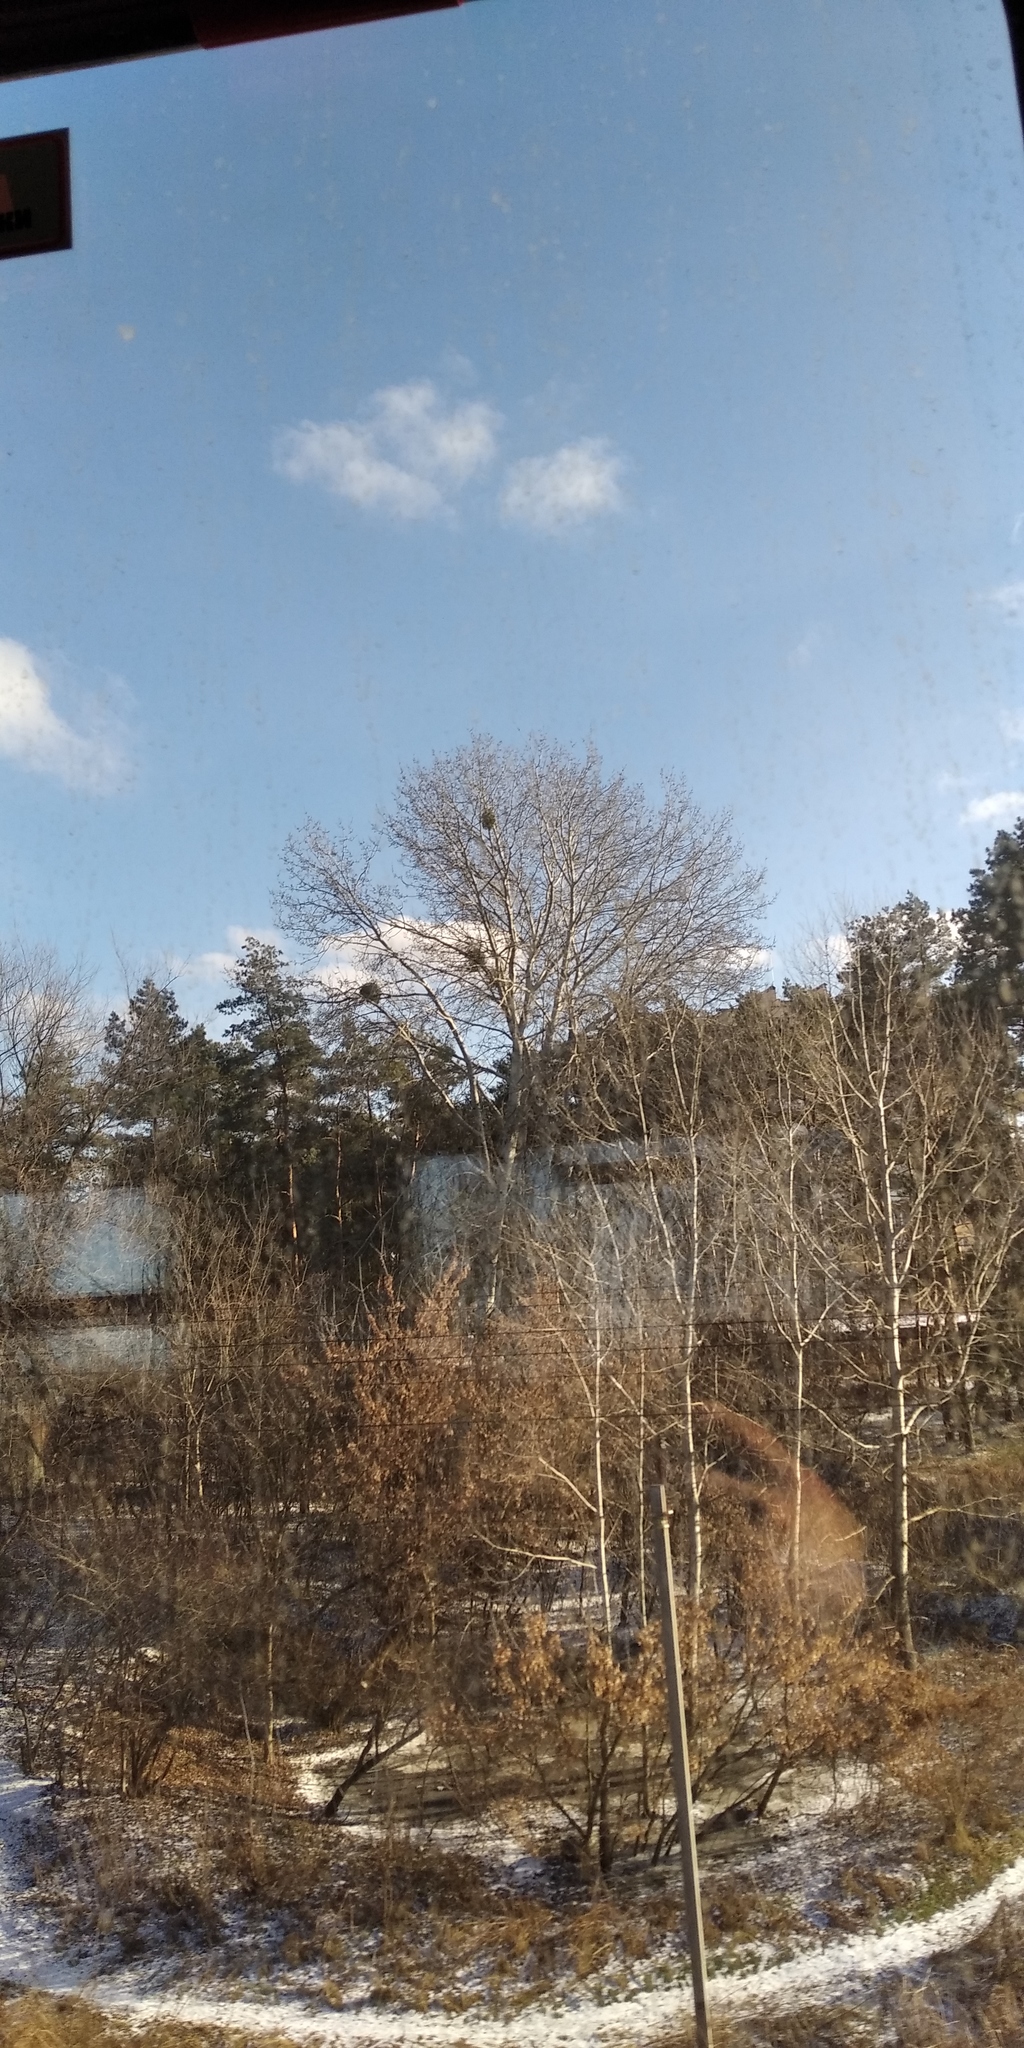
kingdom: Plantae
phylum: Tracheophyta
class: Magnoliopsida
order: Santalales
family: Viscaceae
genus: Viscum
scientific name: Viscum album
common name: Mistletoe
